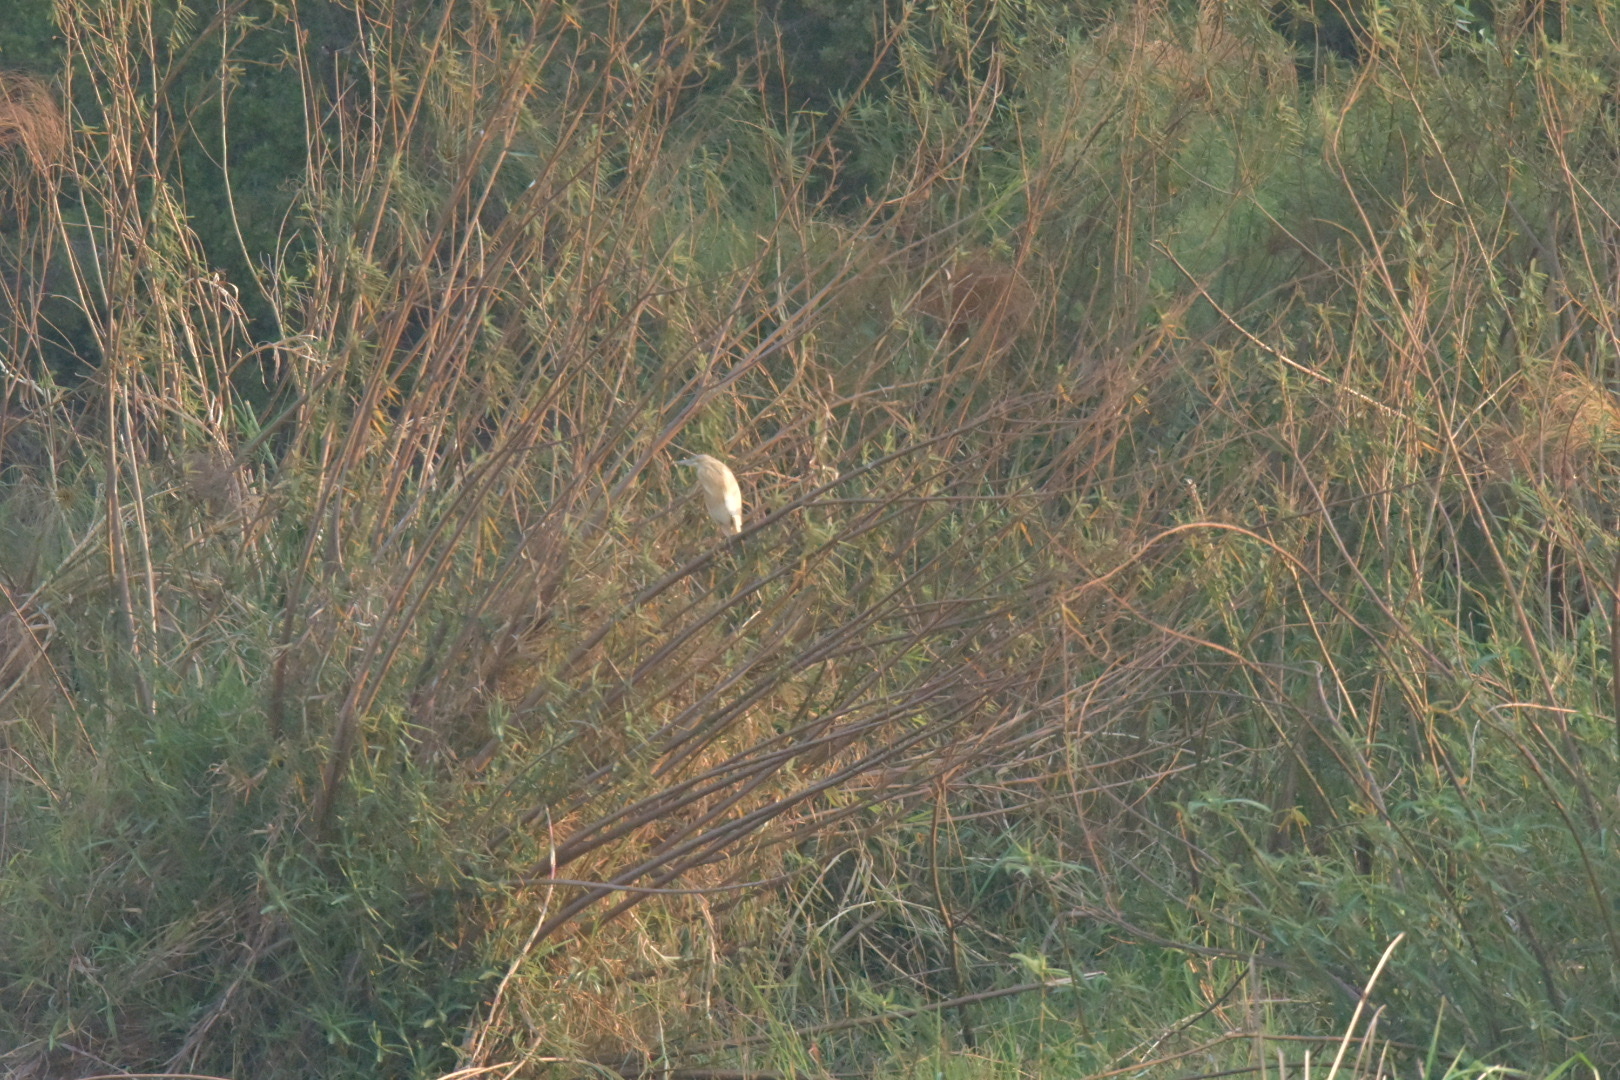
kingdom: Animalia
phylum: Chordata
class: Aves
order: Pelecaniformes
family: Ardeidae
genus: Ardeola
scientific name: Ardeola ralloides
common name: Squacco heron
